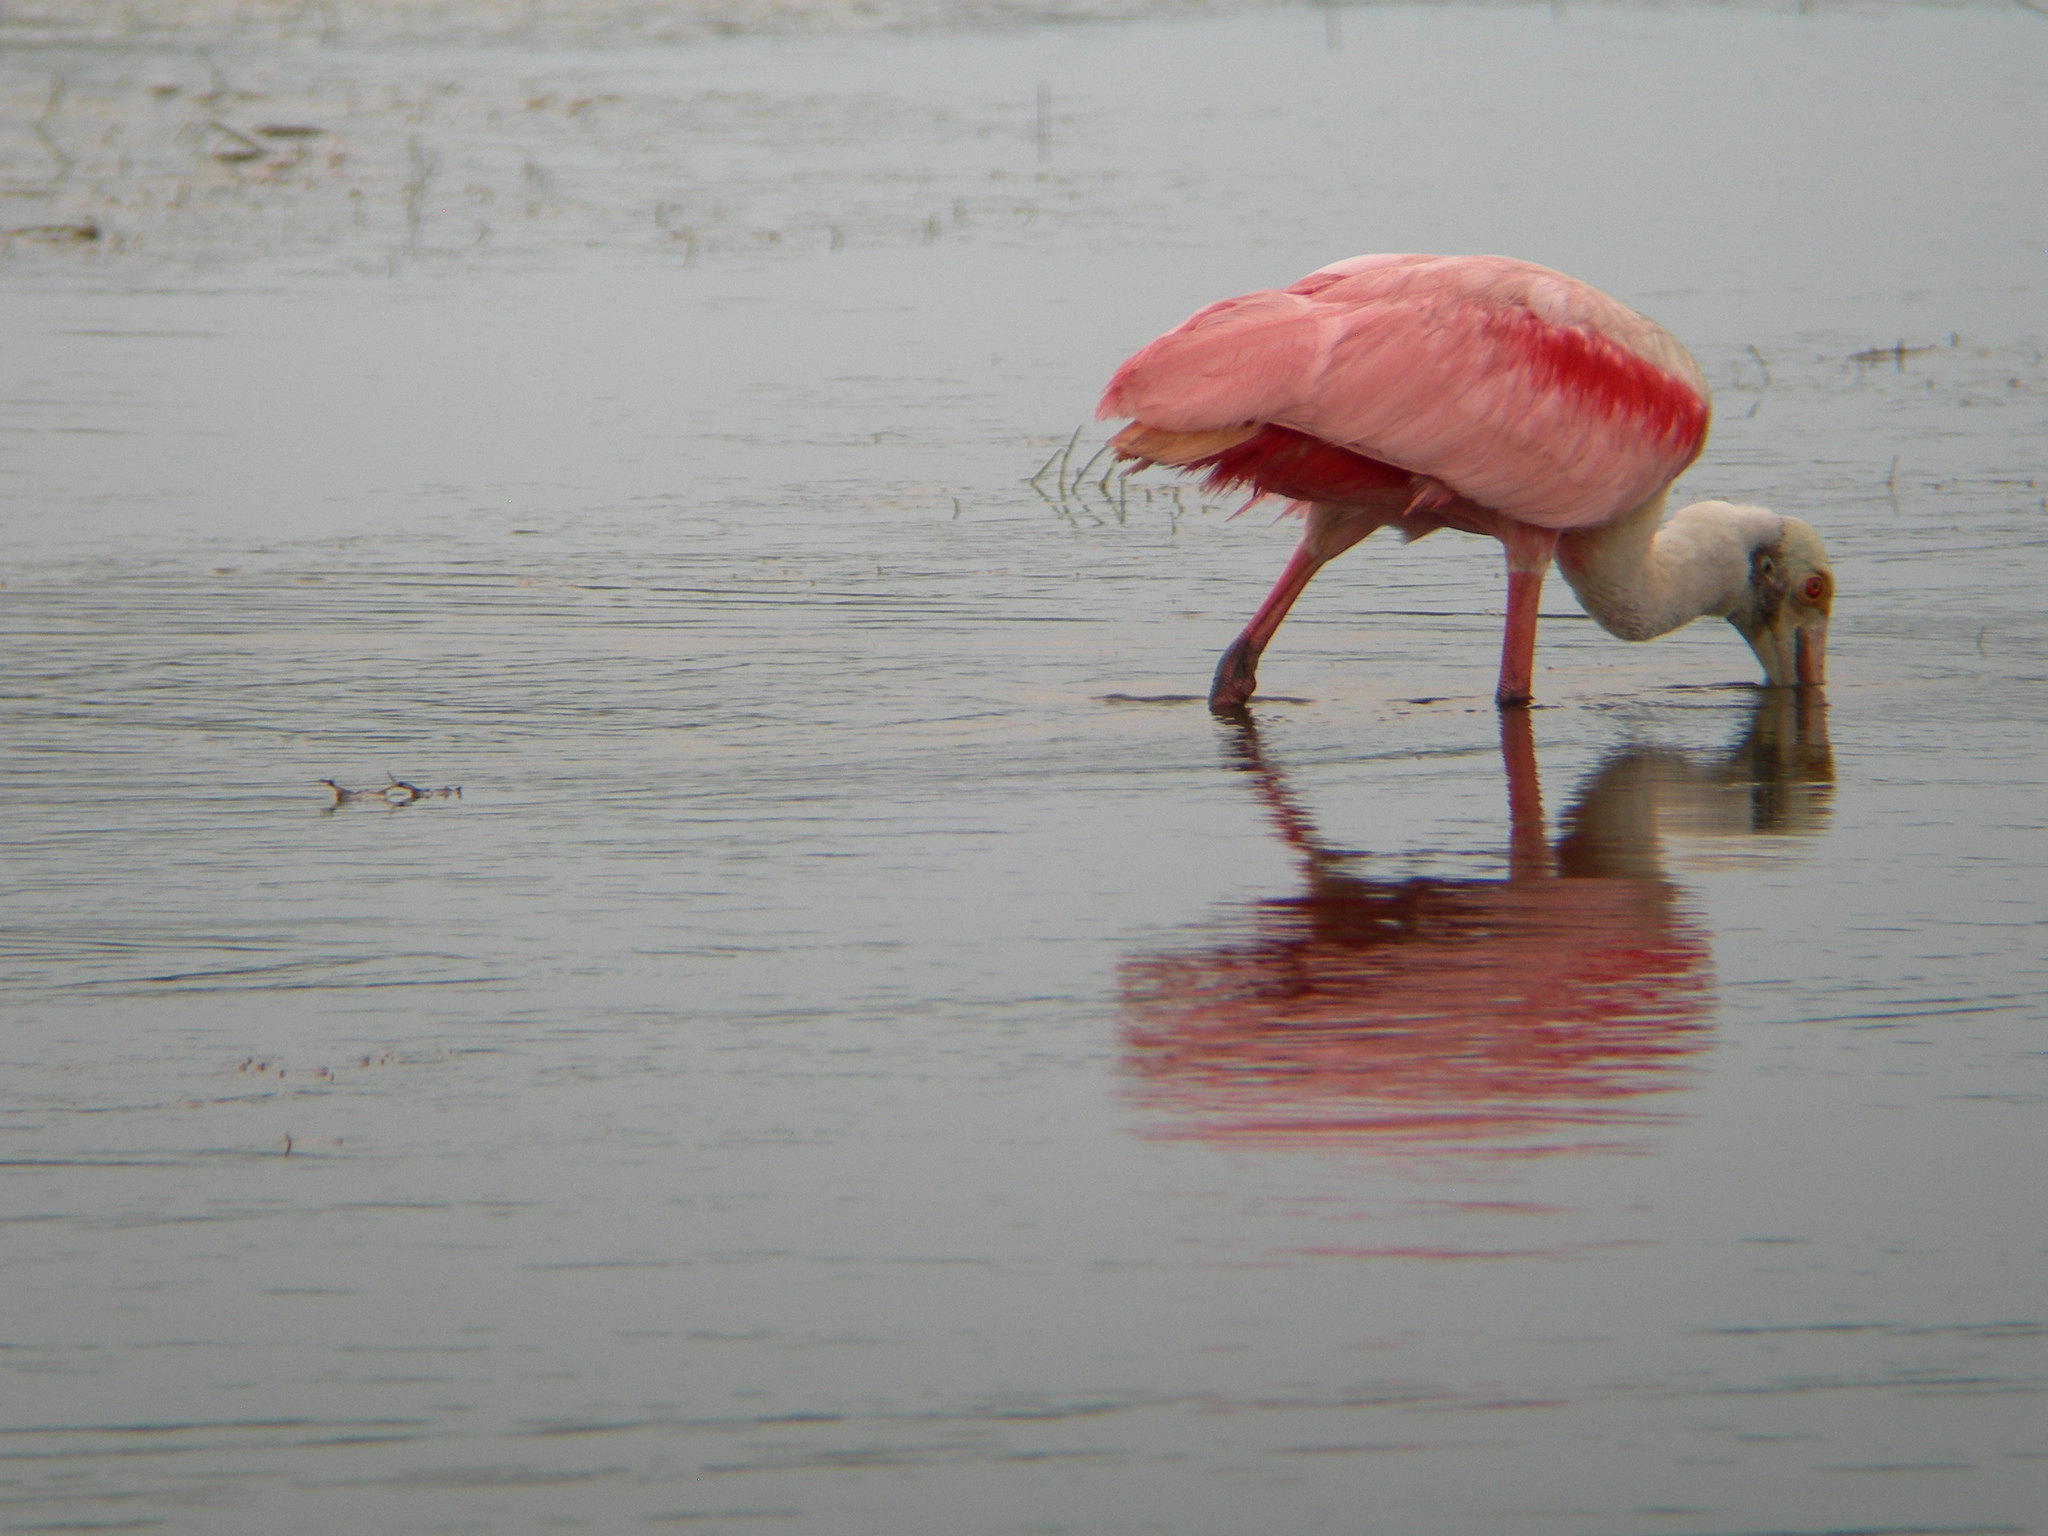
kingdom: Animalia
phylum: Chordata
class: Aves
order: Pelecaniformes
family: Threskiornithidae
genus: Platalea
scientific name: Platalea ajaja
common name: Roseate spoonbill
